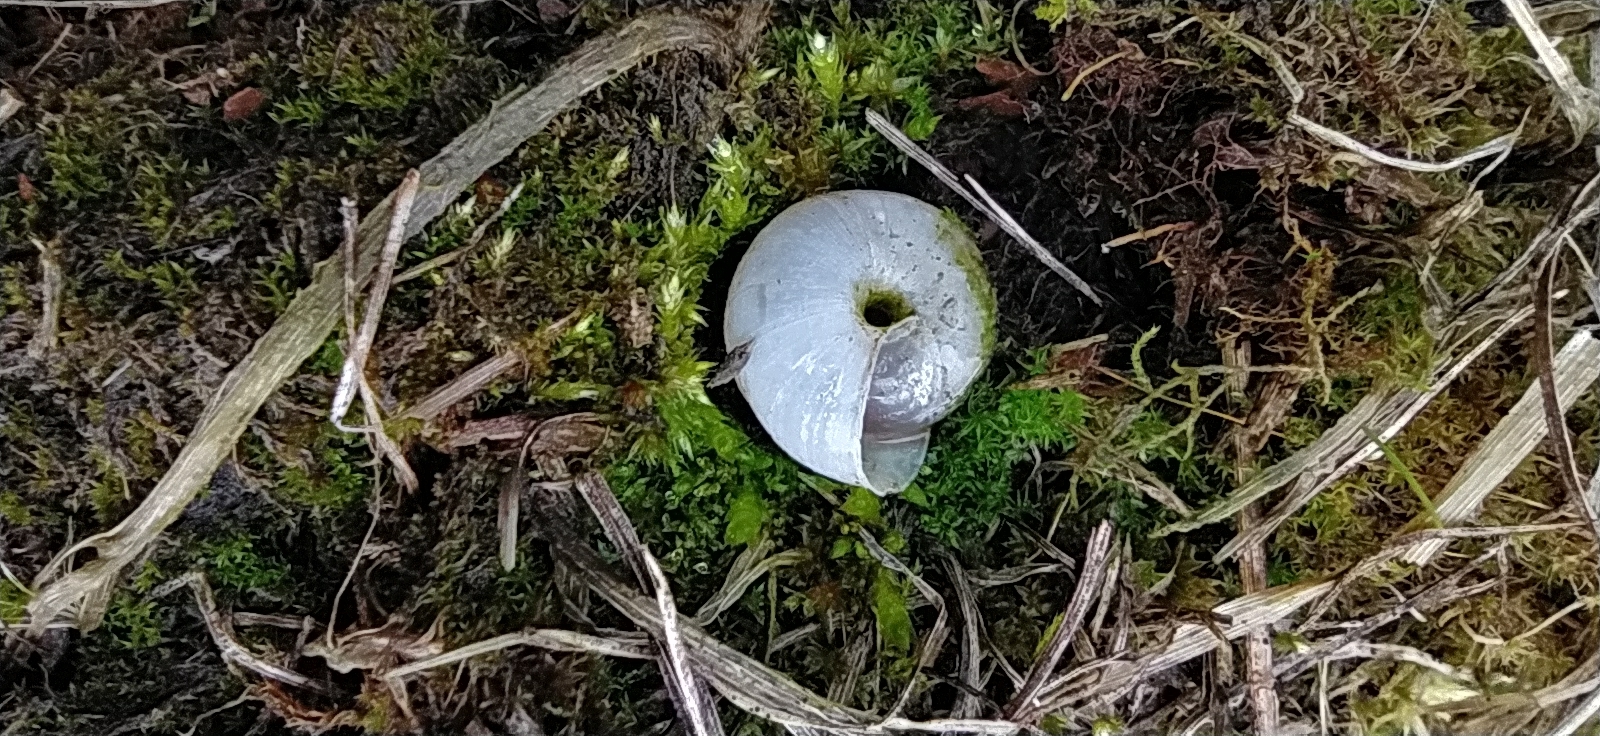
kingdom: Animalia
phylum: Mollusca
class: Gastropoda
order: Stylommatophora
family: Camaenidae
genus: Fruticicola
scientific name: Fruticicola fruticum
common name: Bush snail
